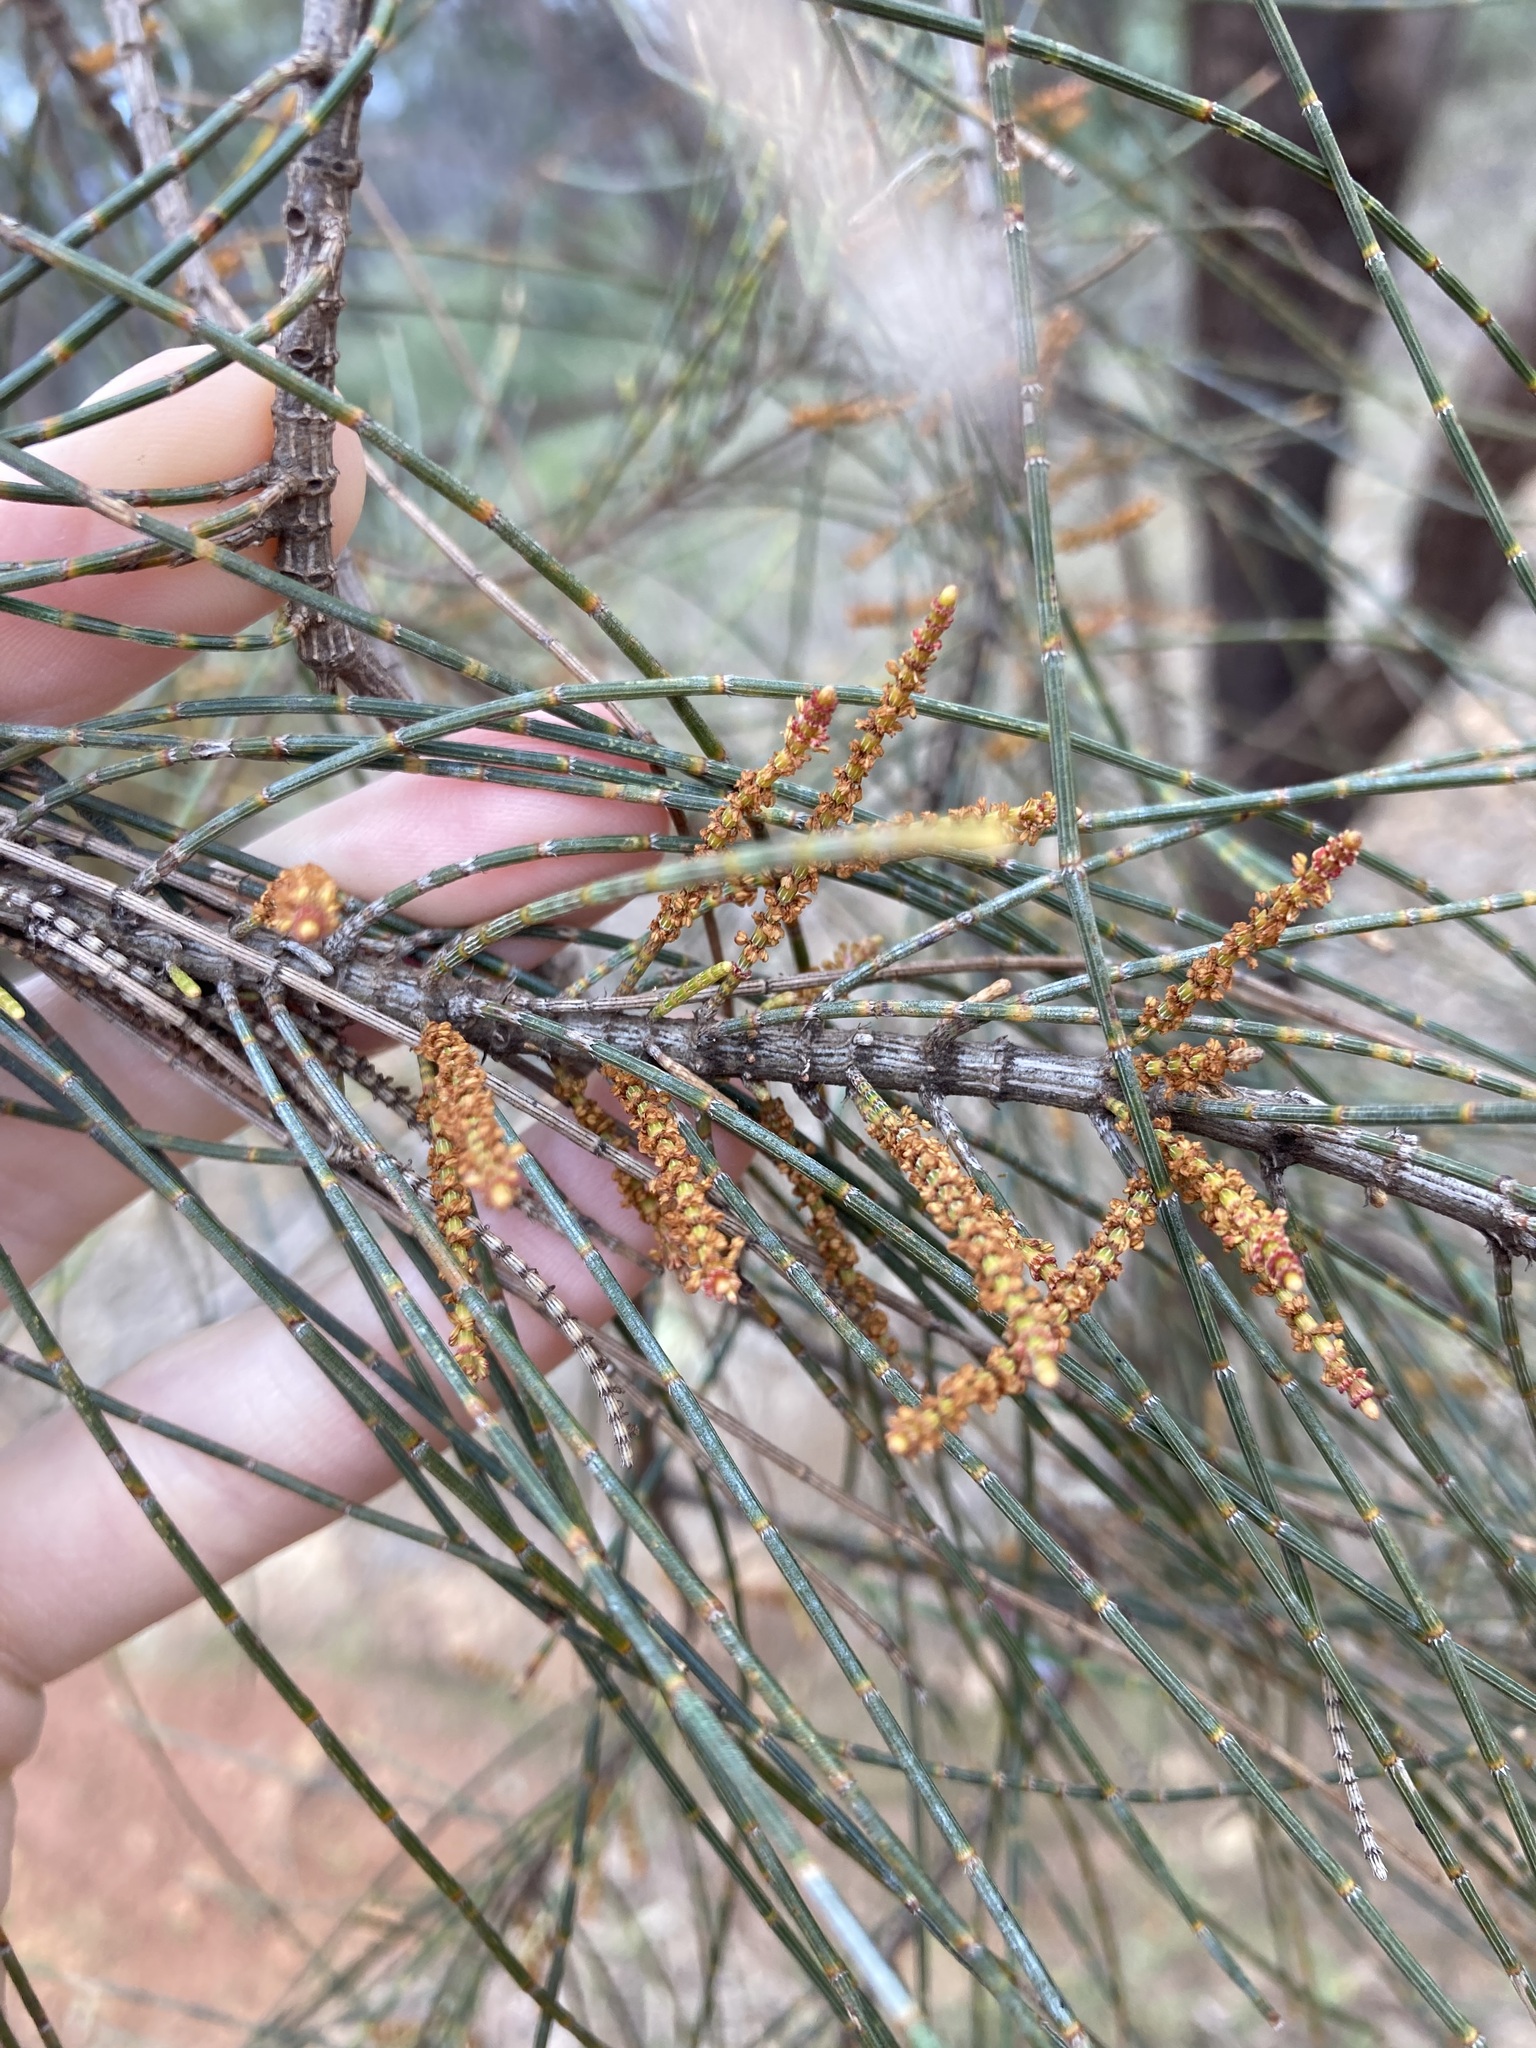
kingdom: Plantae
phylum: Tracheophyta
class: Magnoliopsida
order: Fagales
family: Casuarinaceae
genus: Allocasuarina
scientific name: Allocasuarina campestris
